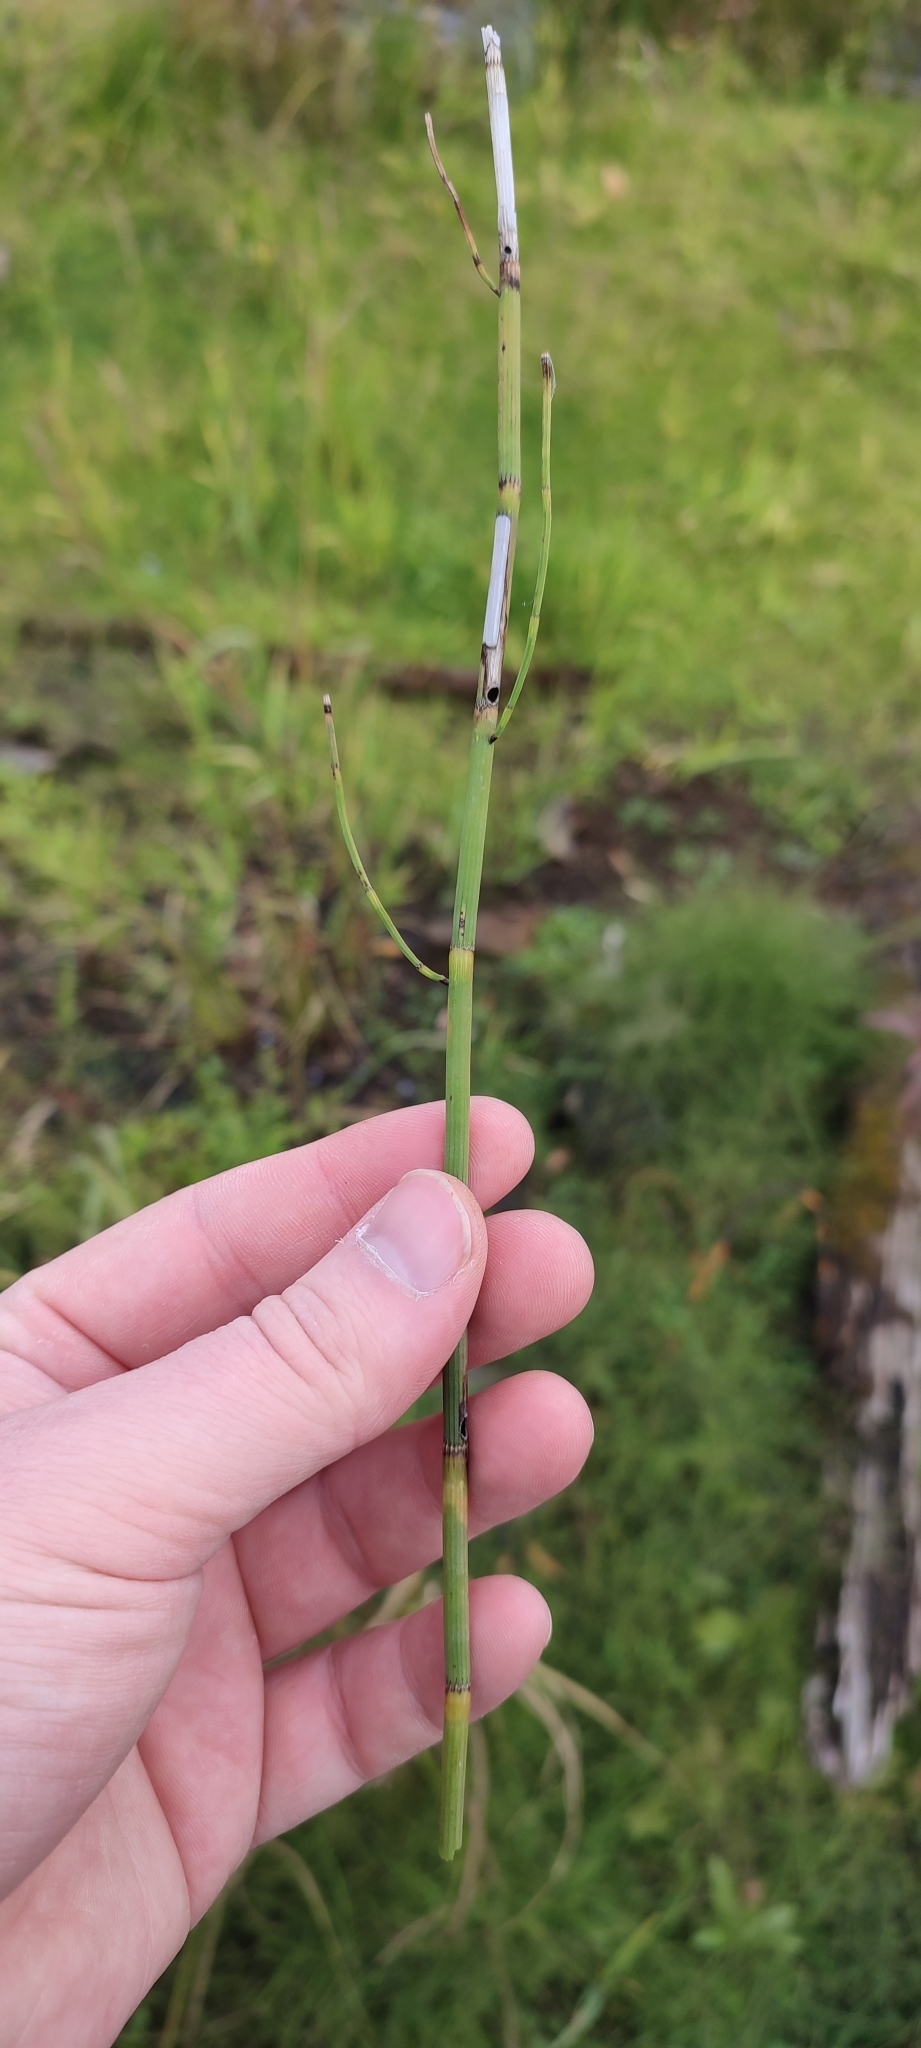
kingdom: Plantae
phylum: Tracheophyta
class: Polypodiopsida
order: Equisetales
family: Equisetaceae
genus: Equisetum
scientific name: Equisetum fluviatile
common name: Water horsetail
